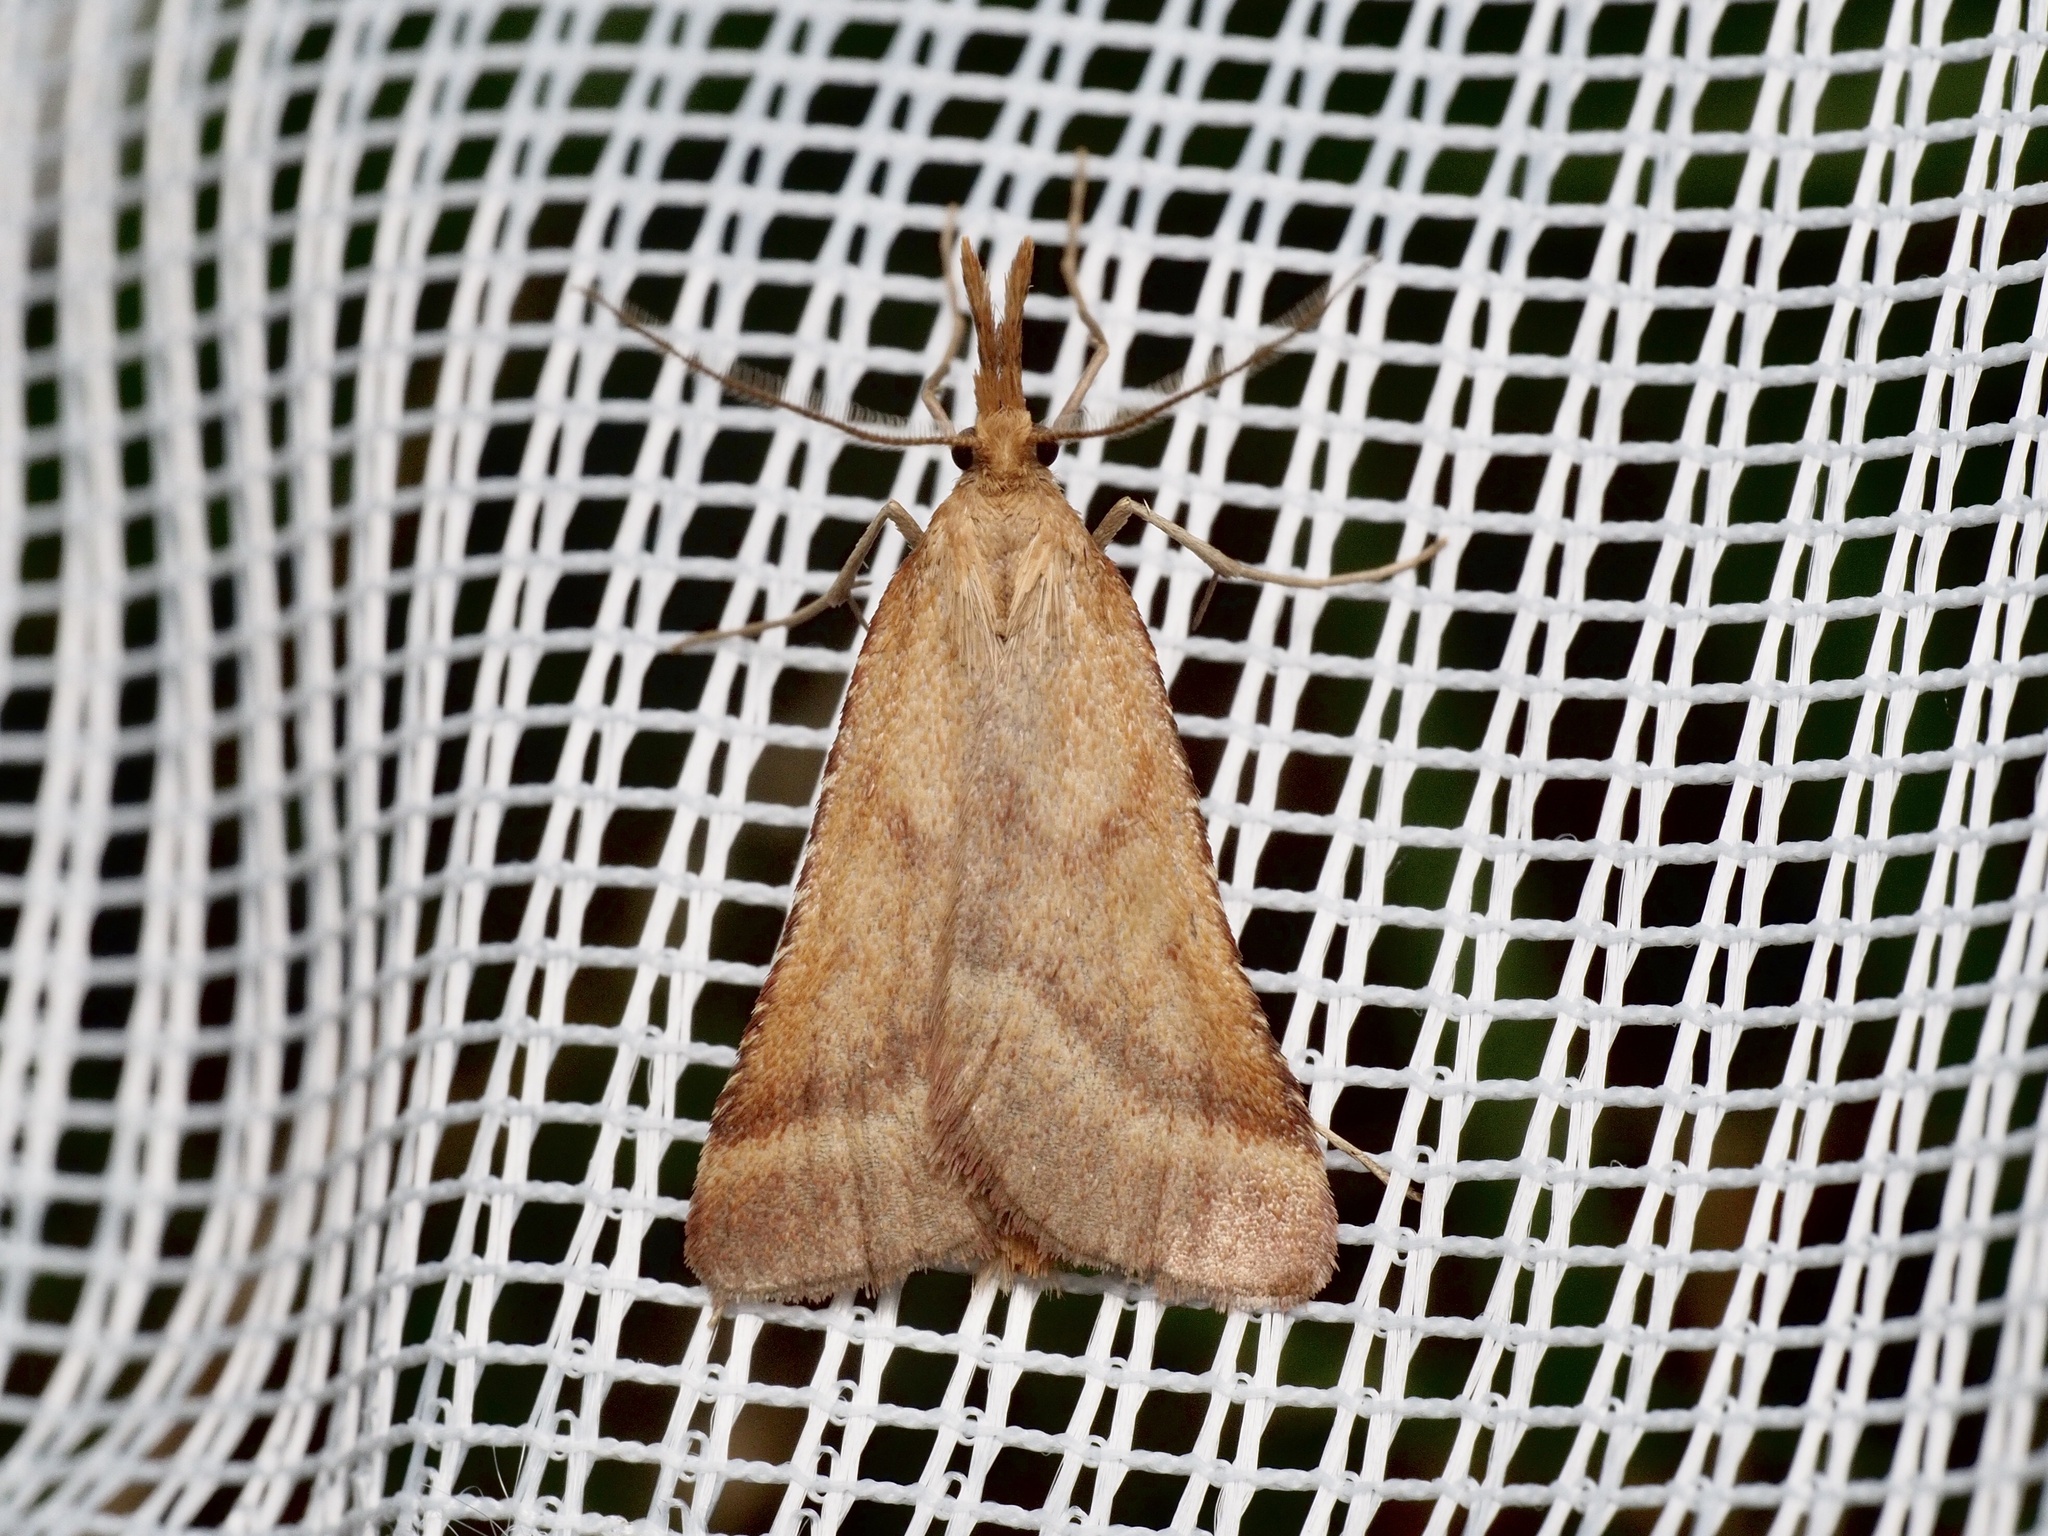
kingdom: Animalia
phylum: Arthropoda
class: Insecta
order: Lepidoptera
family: Pyralidae
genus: Synaphe
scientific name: Synaphe punctalis
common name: Long-legged tabby
